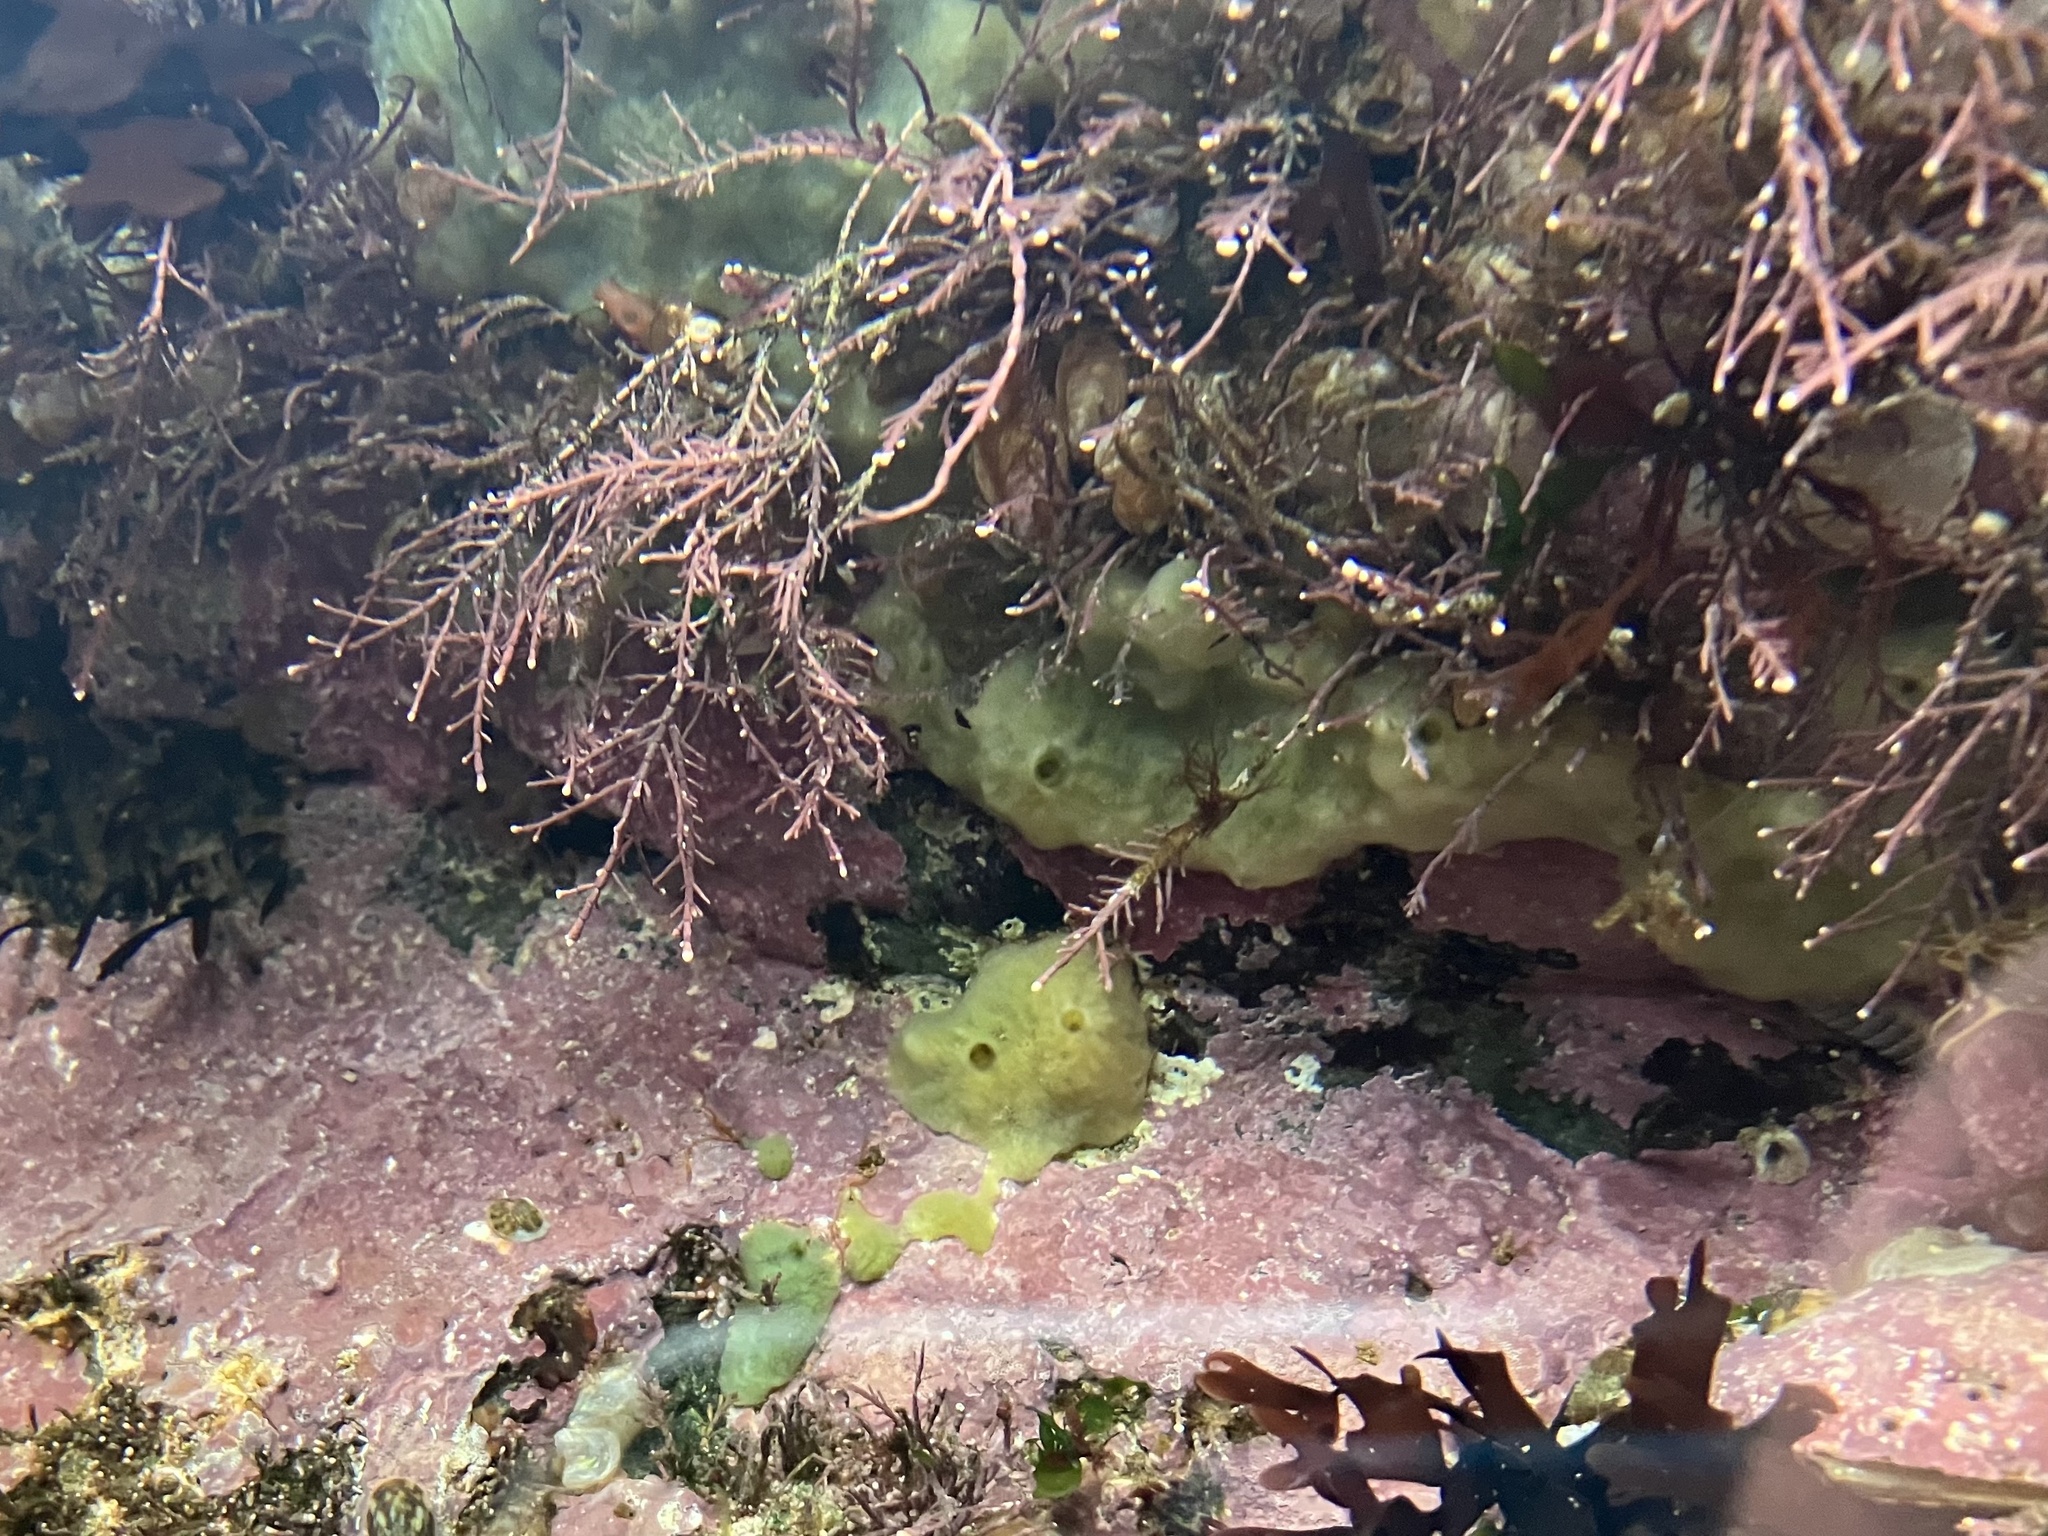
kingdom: Animalia
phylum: Porifera
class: Demospongiae
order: Suberitida
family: Halichondriidae
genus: Halichondria
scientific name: Halichondria panicea
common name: Breadcrumb sponge
